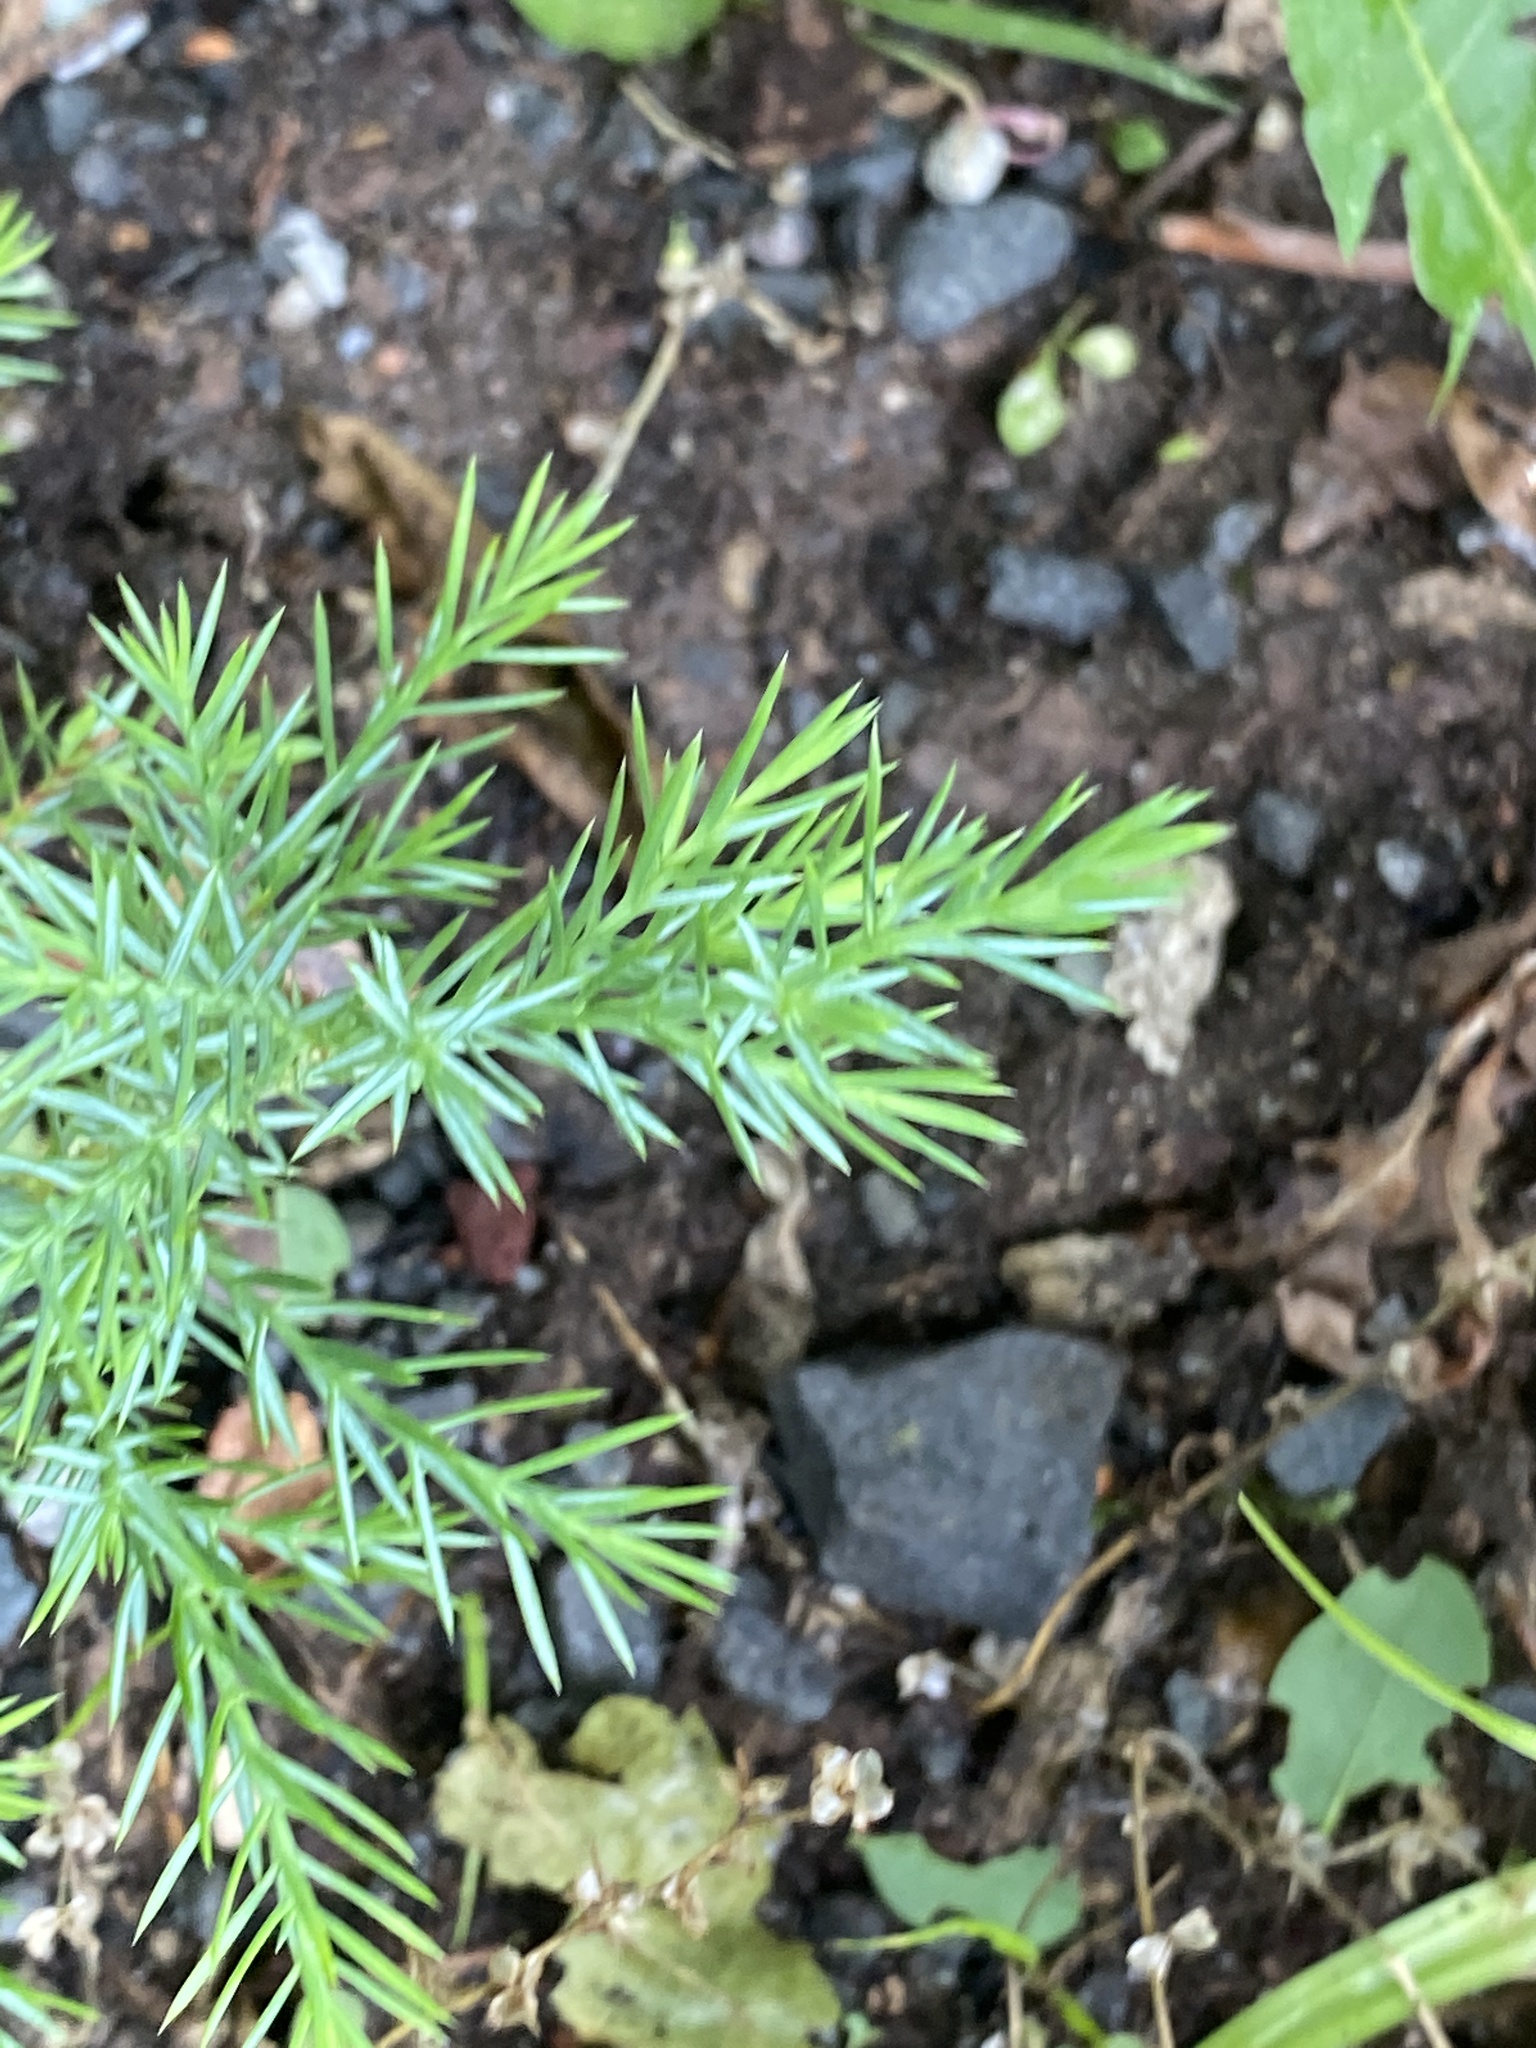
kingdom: Plantae
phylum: Tracheophyta
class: Pinopsida
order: Pinales
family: Cupressaceae
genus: Juniperus
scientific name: Juniperus virginiana
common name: Red juniper
